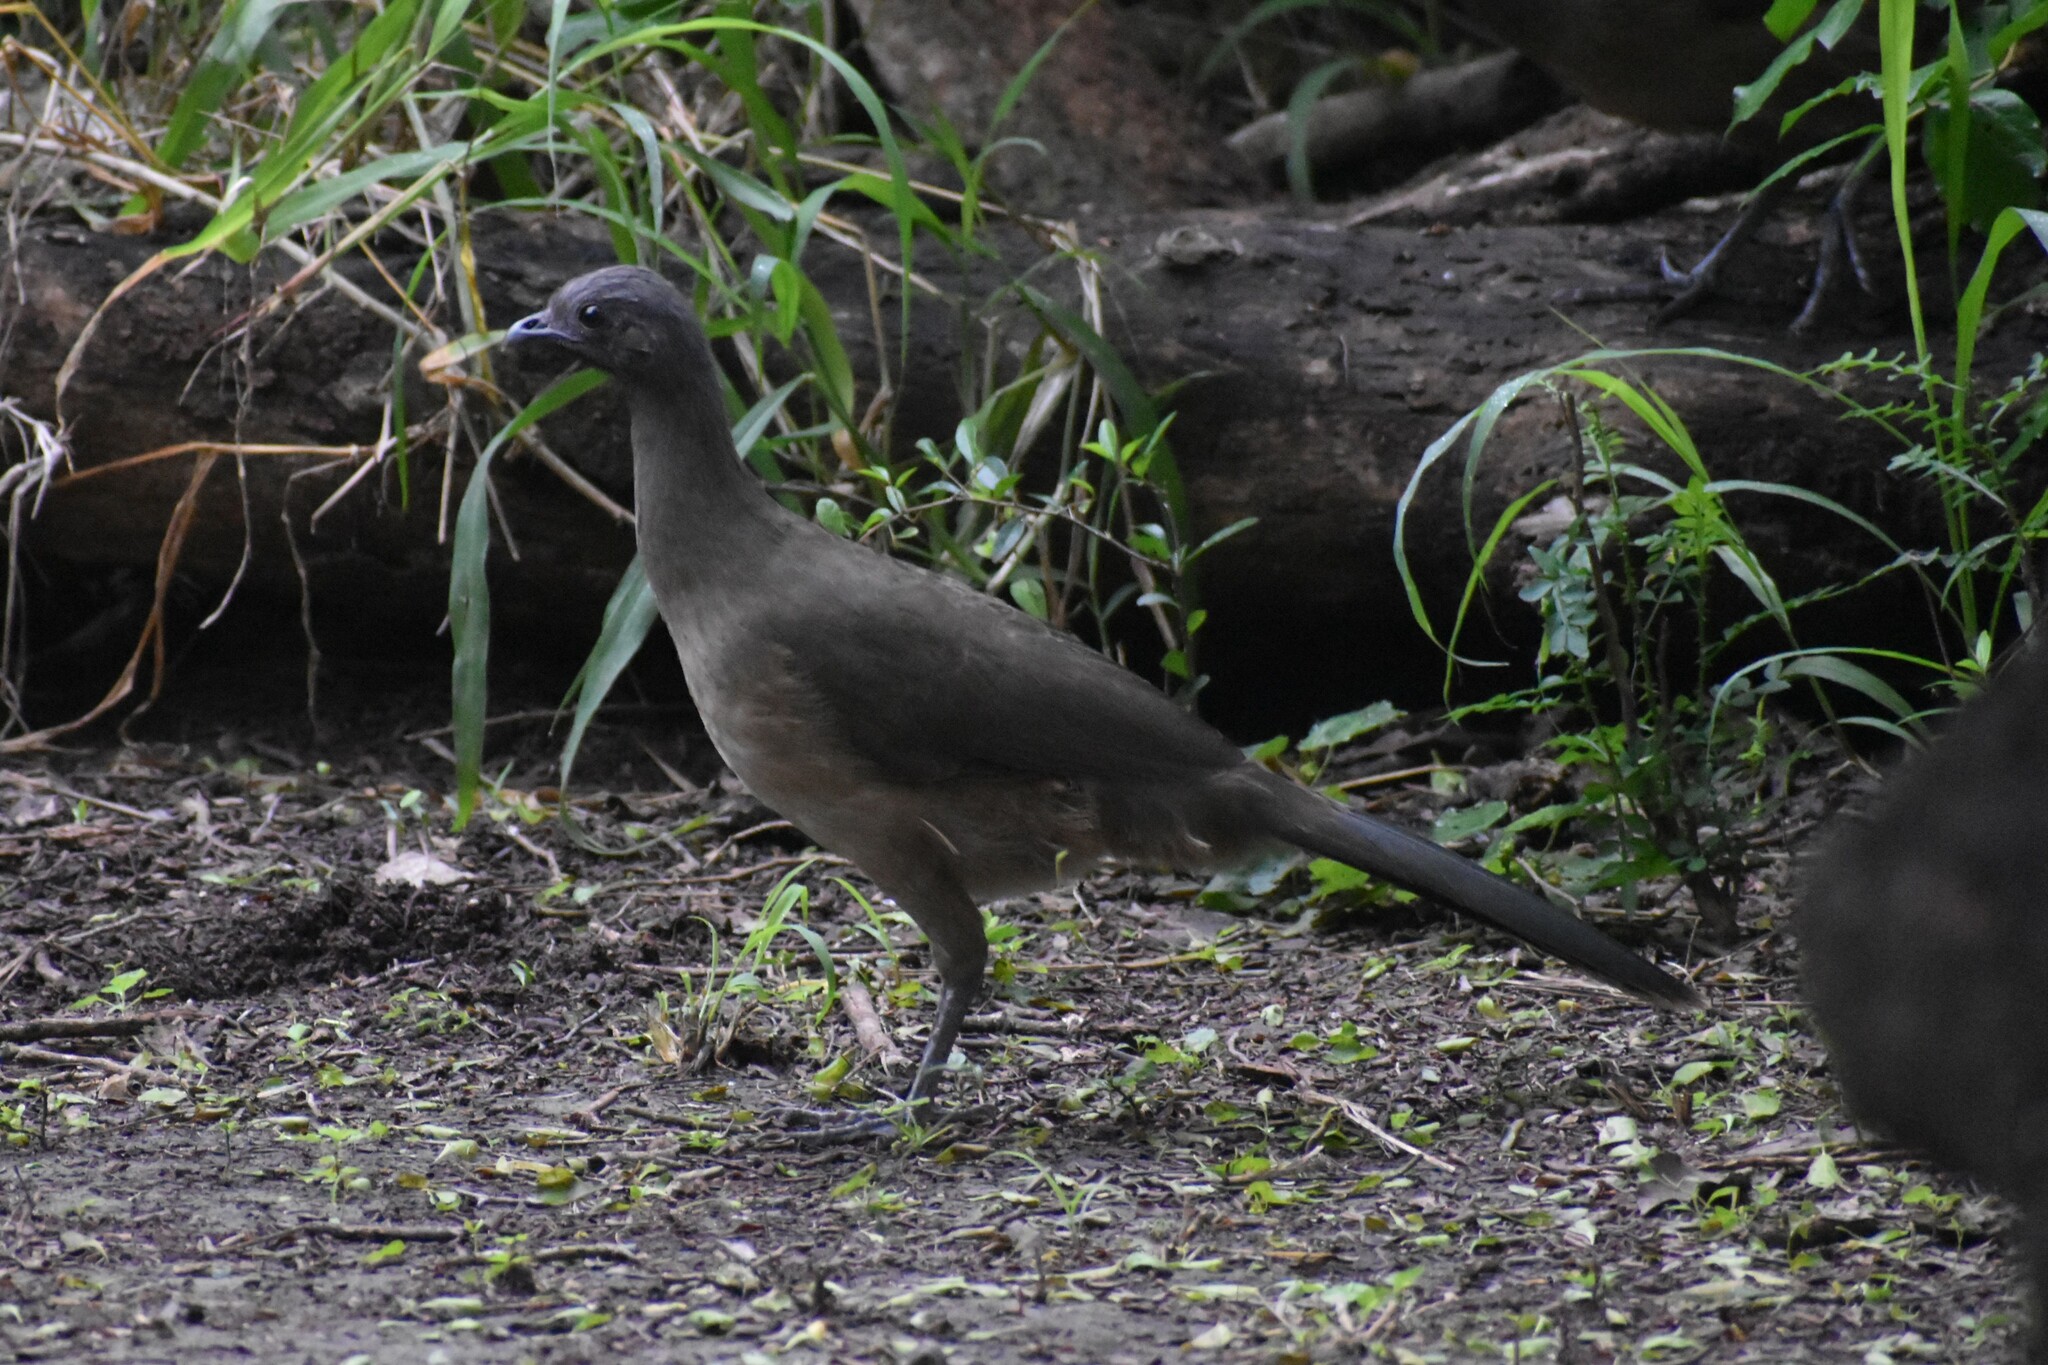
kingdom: Animalia
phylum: Chordata
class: Aves
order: Galliformes
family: Cracidae
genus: Ortalis
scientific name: Ortalis vetula
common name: Plain chachalaca
